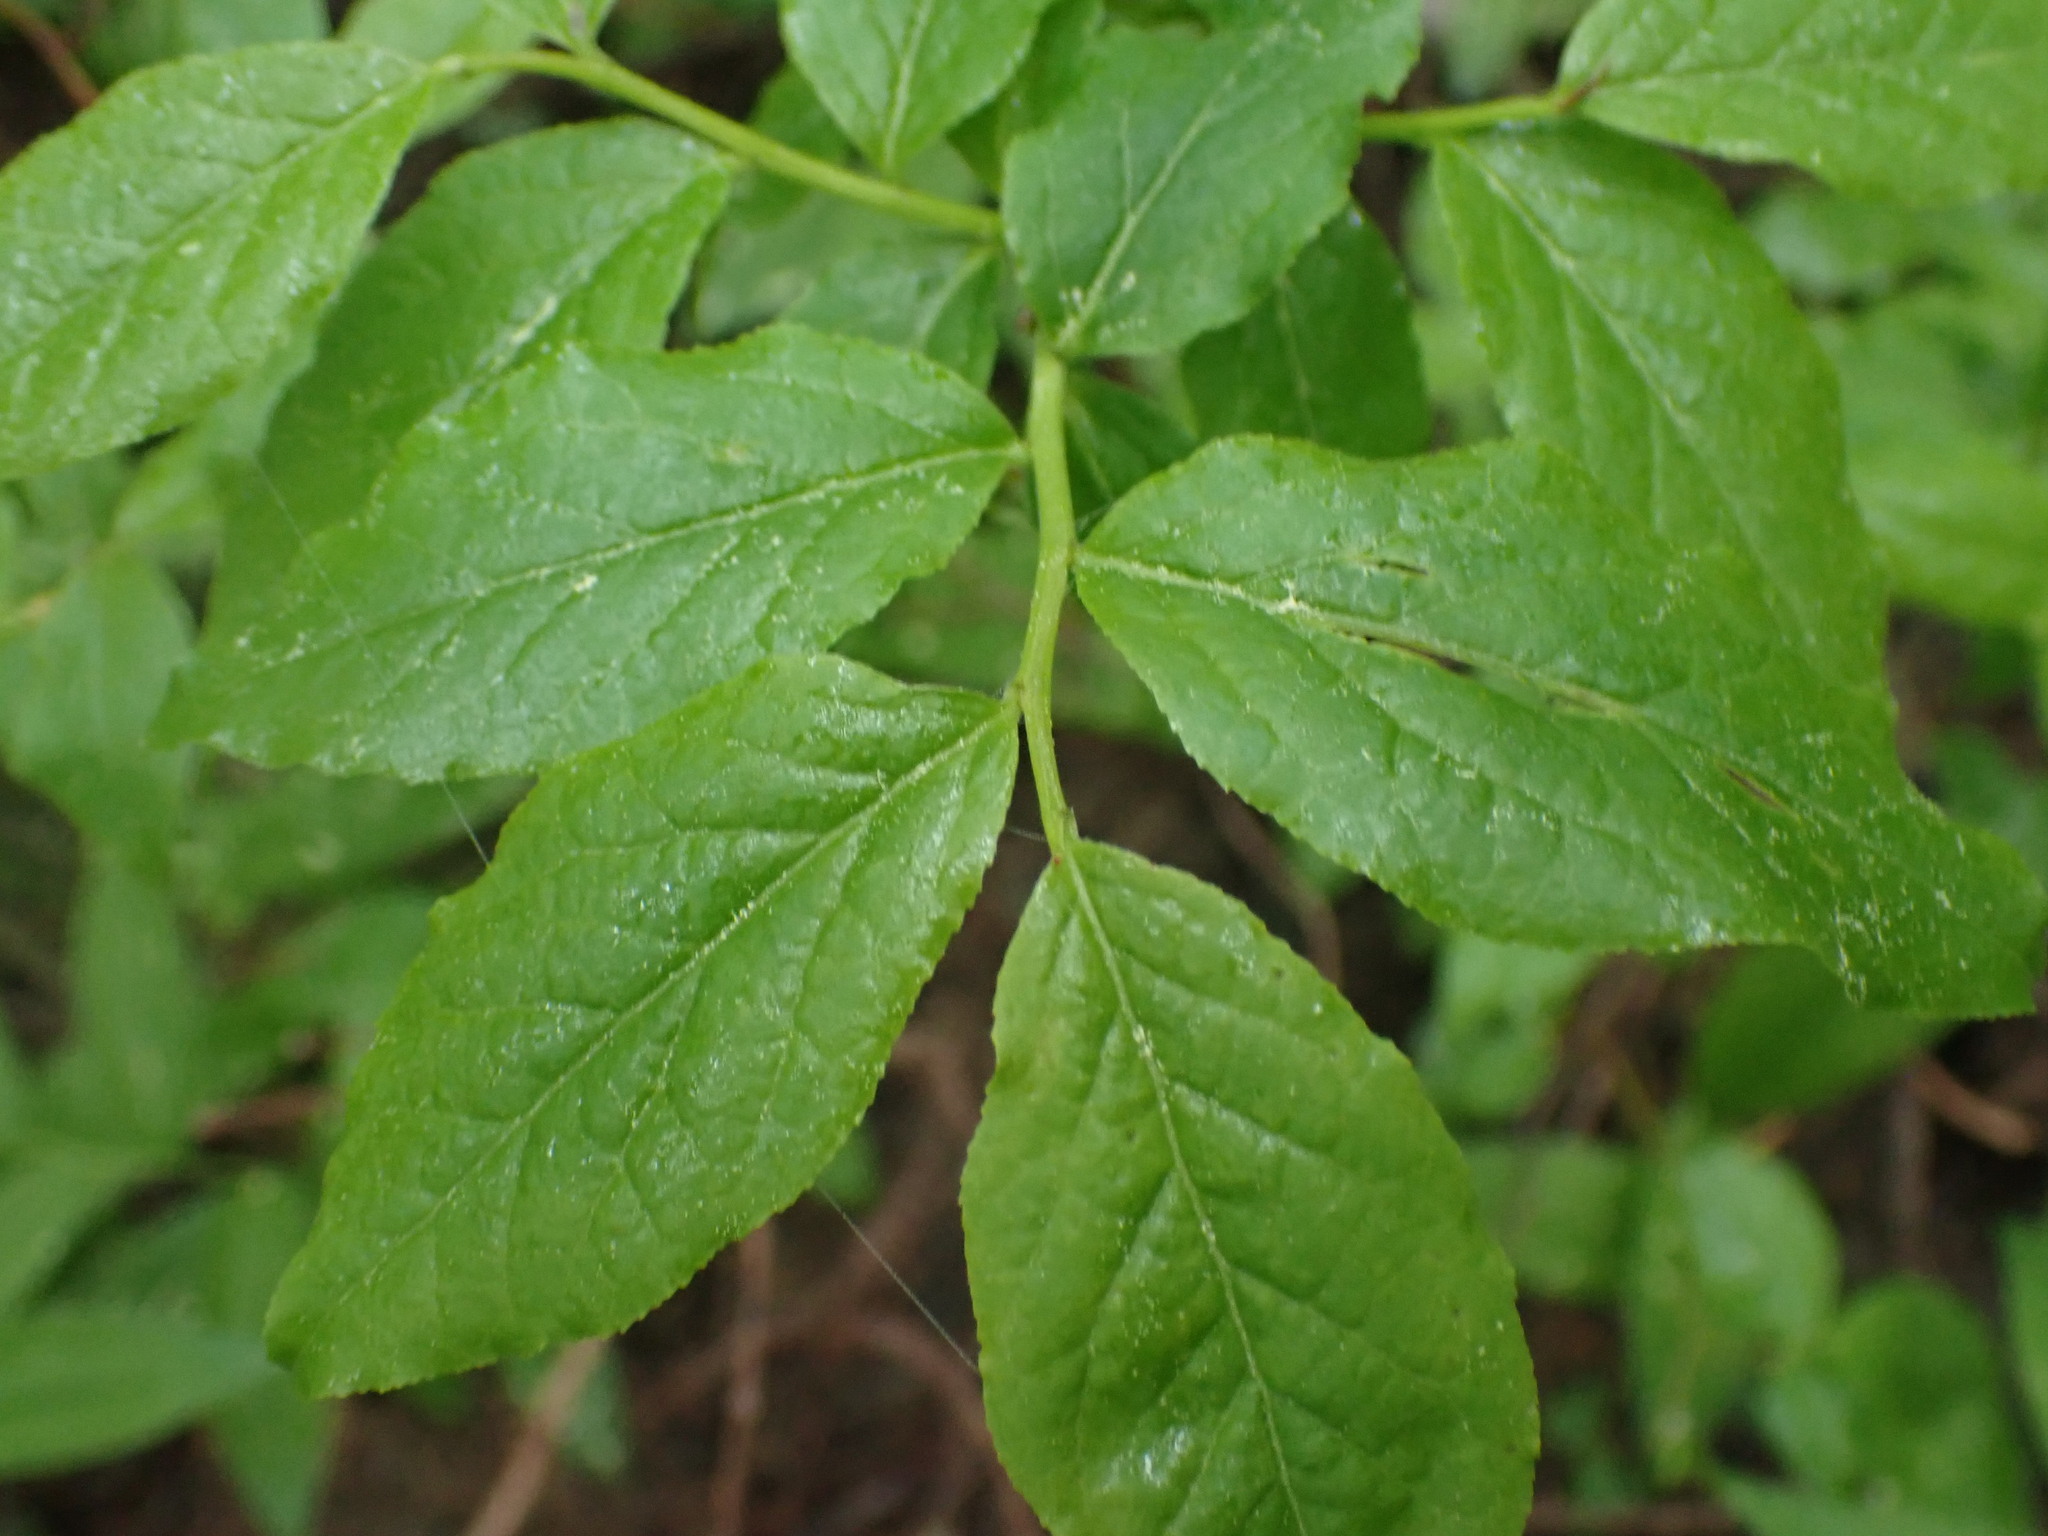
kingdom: Plantae
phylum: Tracheophyta
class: Magnoliopsida
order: Ericales
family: Ericaceae
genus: Vaccinium
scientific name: Vaccinium membranaceum
